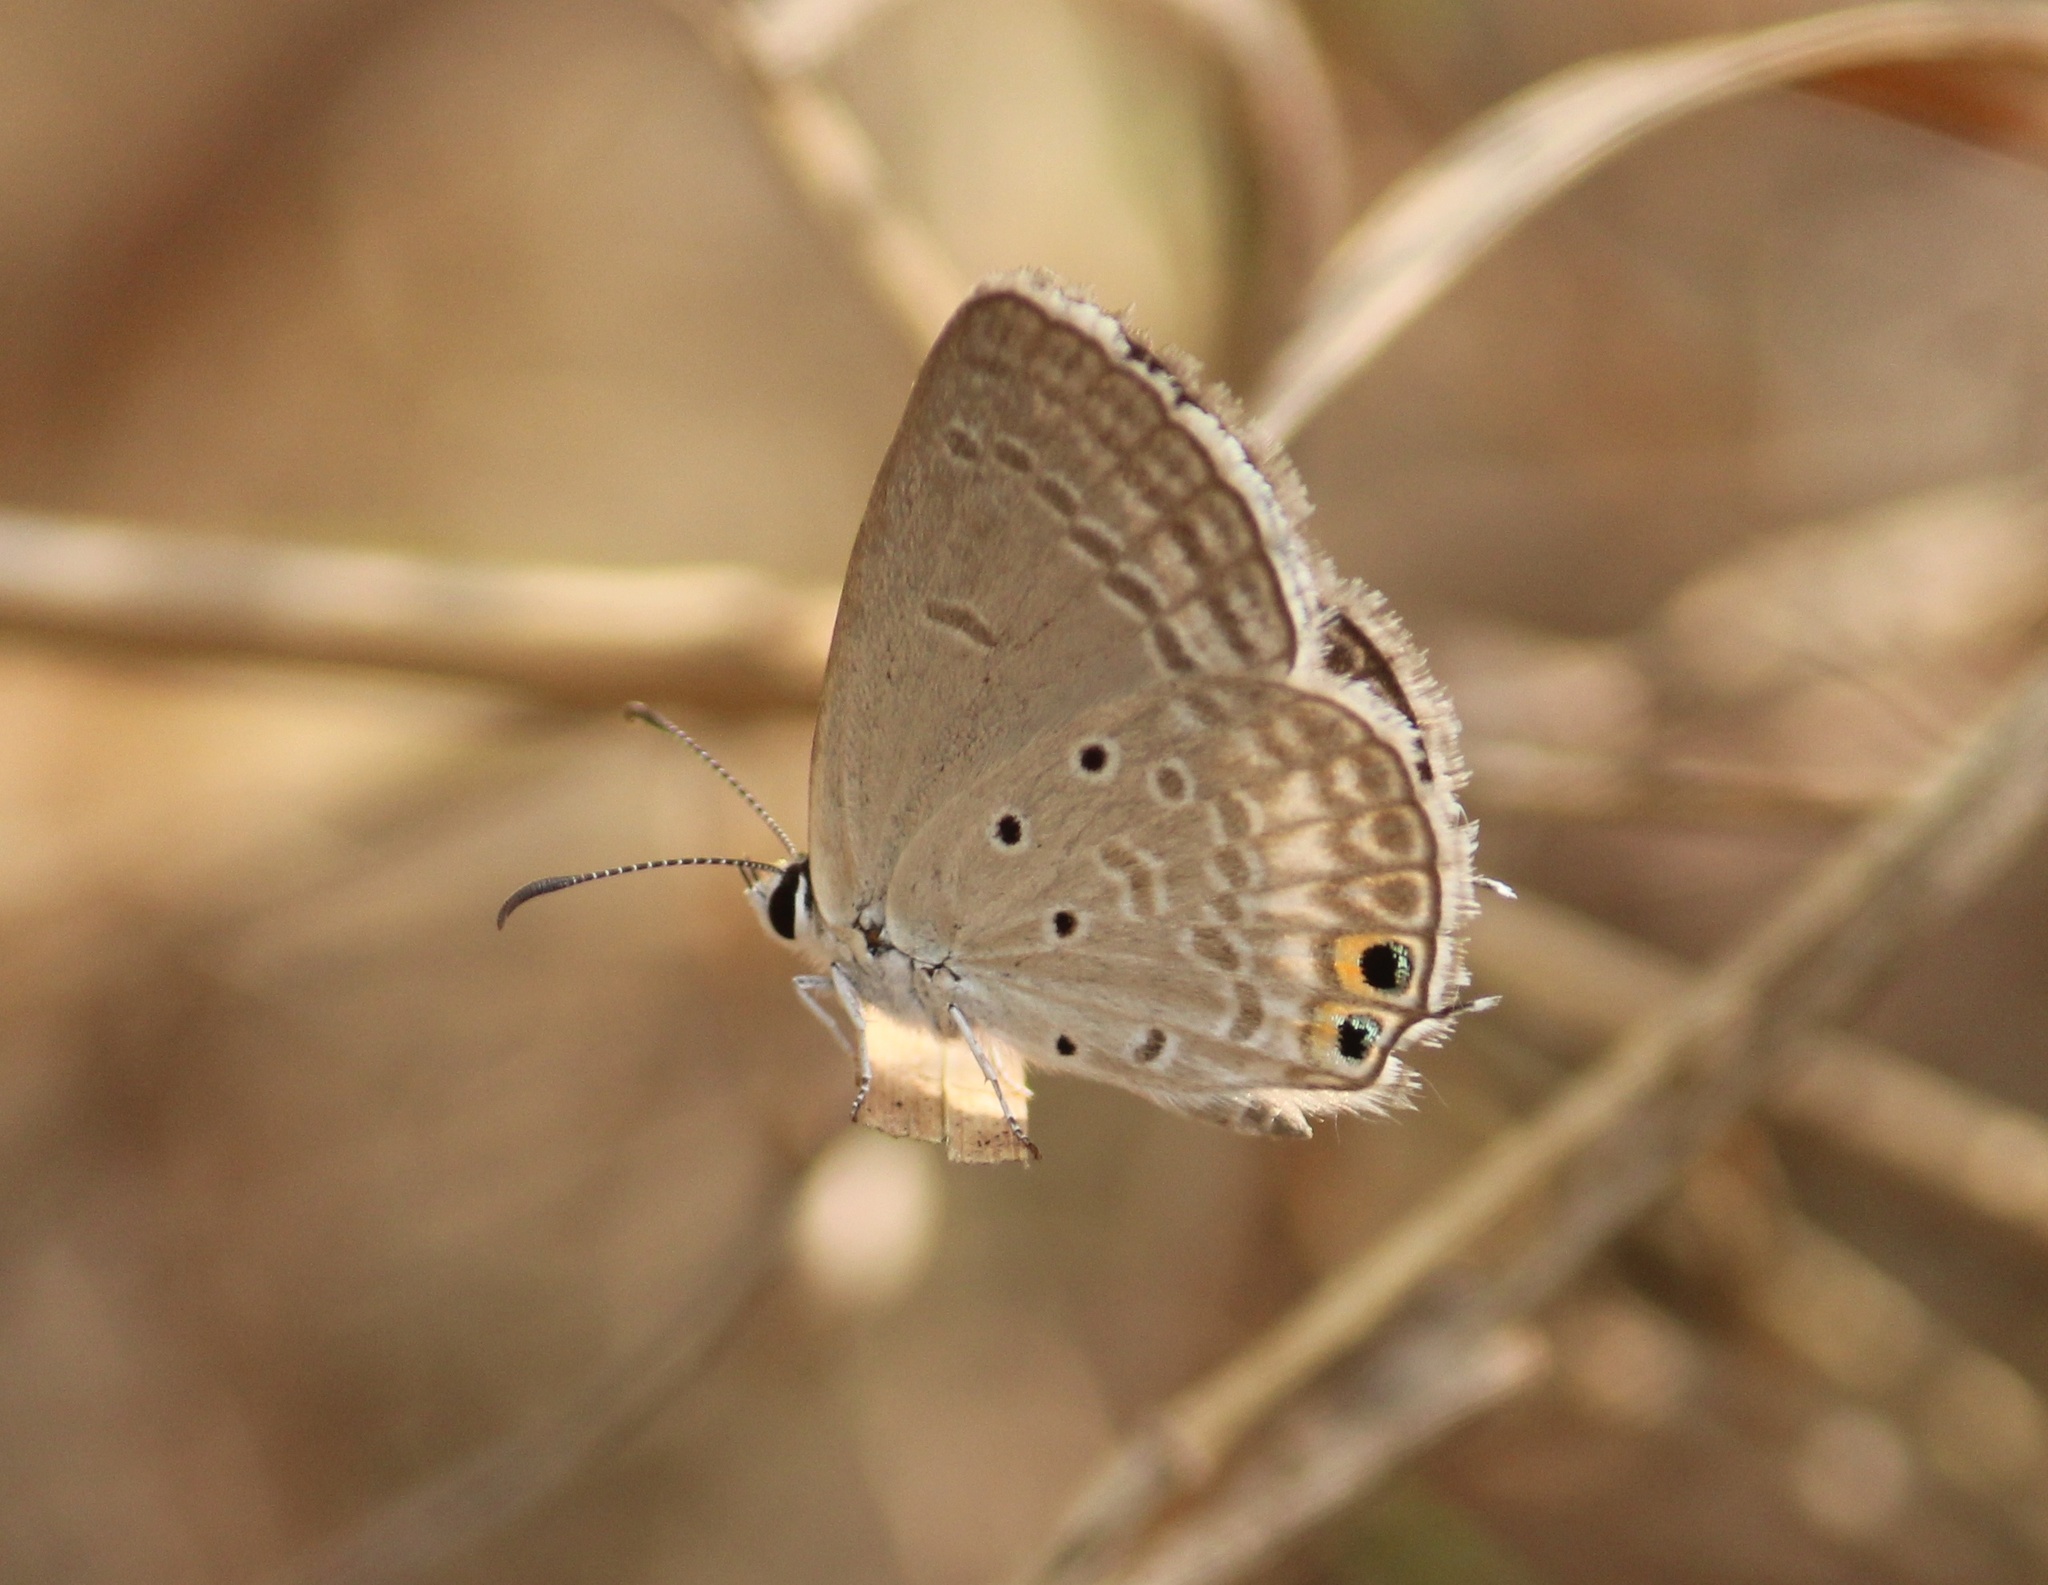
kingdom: Animalia
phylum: Arthropoda
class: Insecta
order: Lepidoptera
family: Lycaenidae
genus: Euchrysops
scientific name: Euchrysops cnejus
